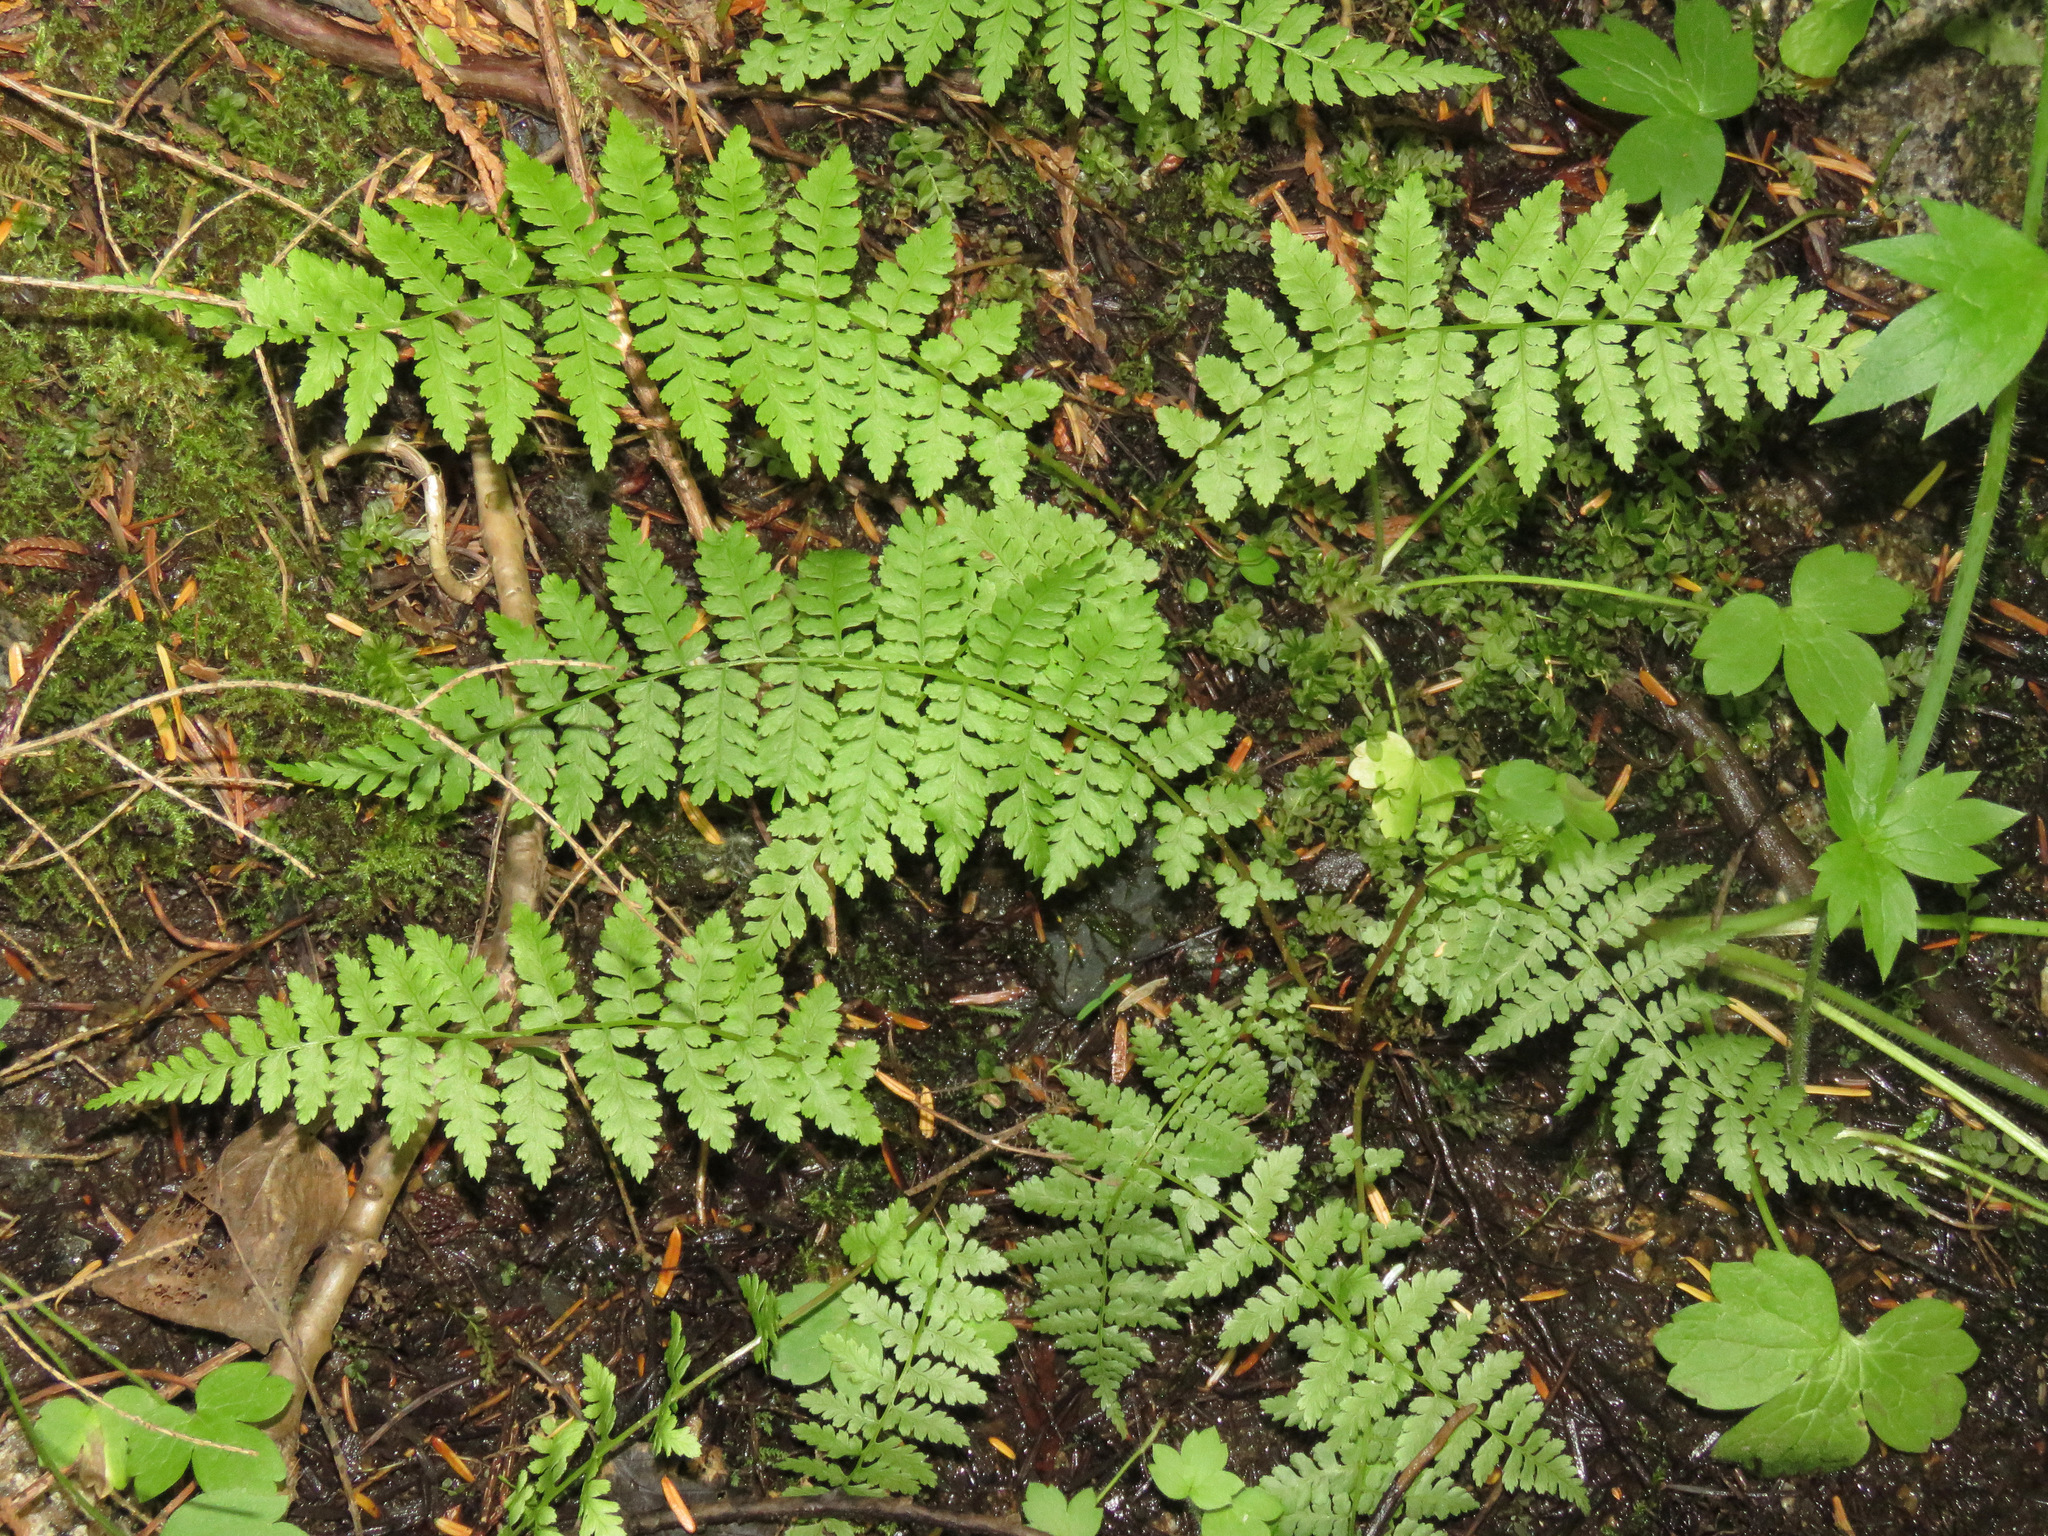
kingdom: Plantae
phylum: Tracheophyta
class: Polypodiopsida
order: Polypodiales
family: Athyriaceae
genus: Athyrium
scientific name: Athyrium filix-femina
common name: Lady fern
